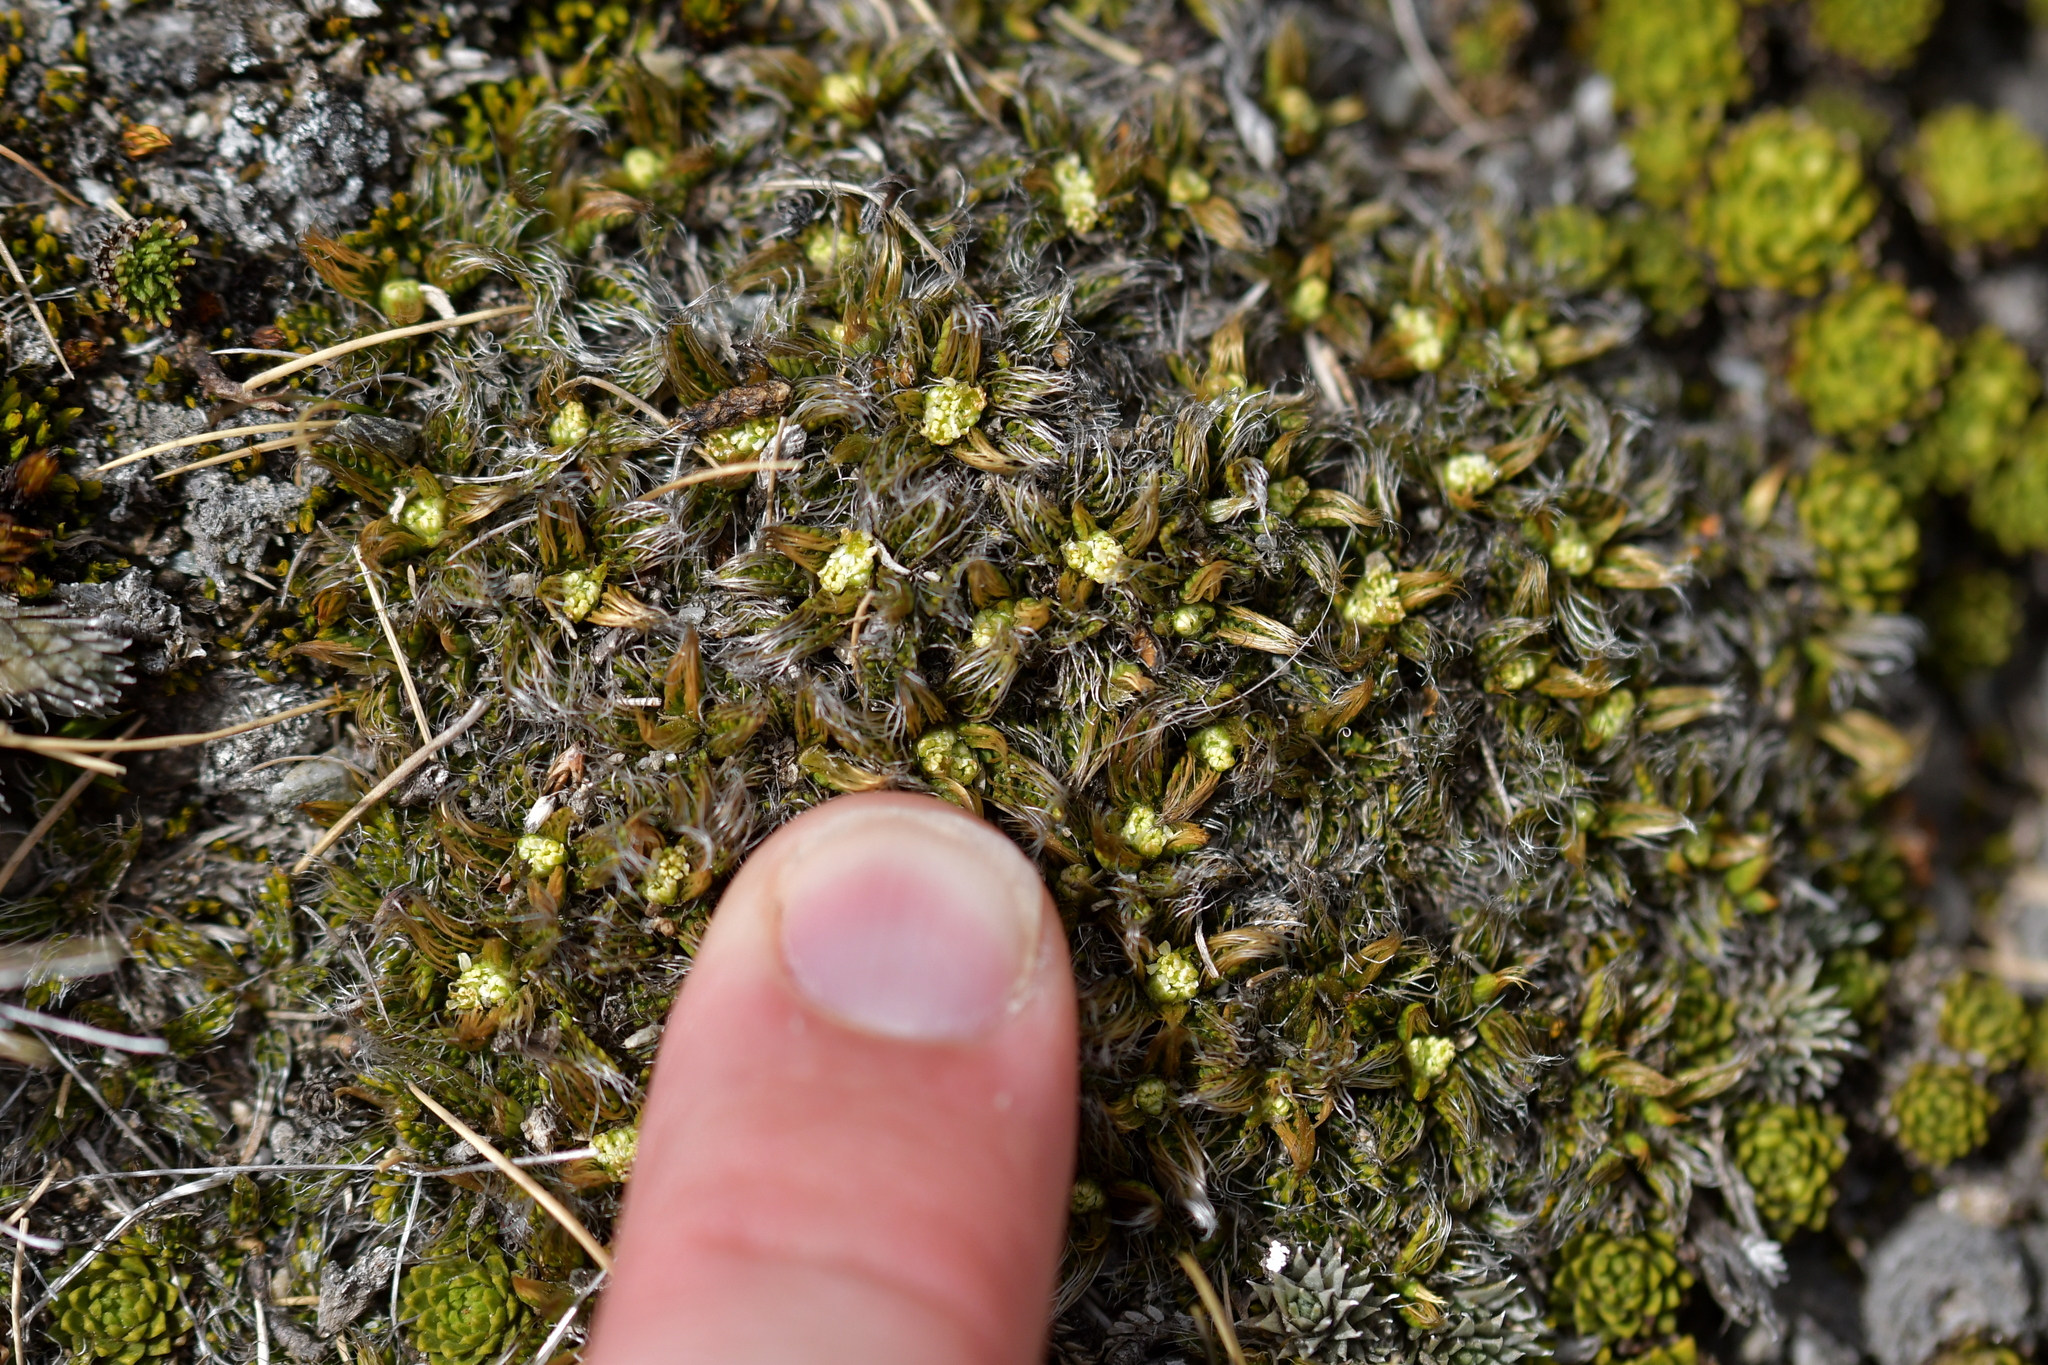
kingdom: Plantae
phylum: Tracheophyta
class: Magnoliopsida
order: Apiales
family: Apiaceae
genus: Anisotome
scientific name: Anisotome imbricata
